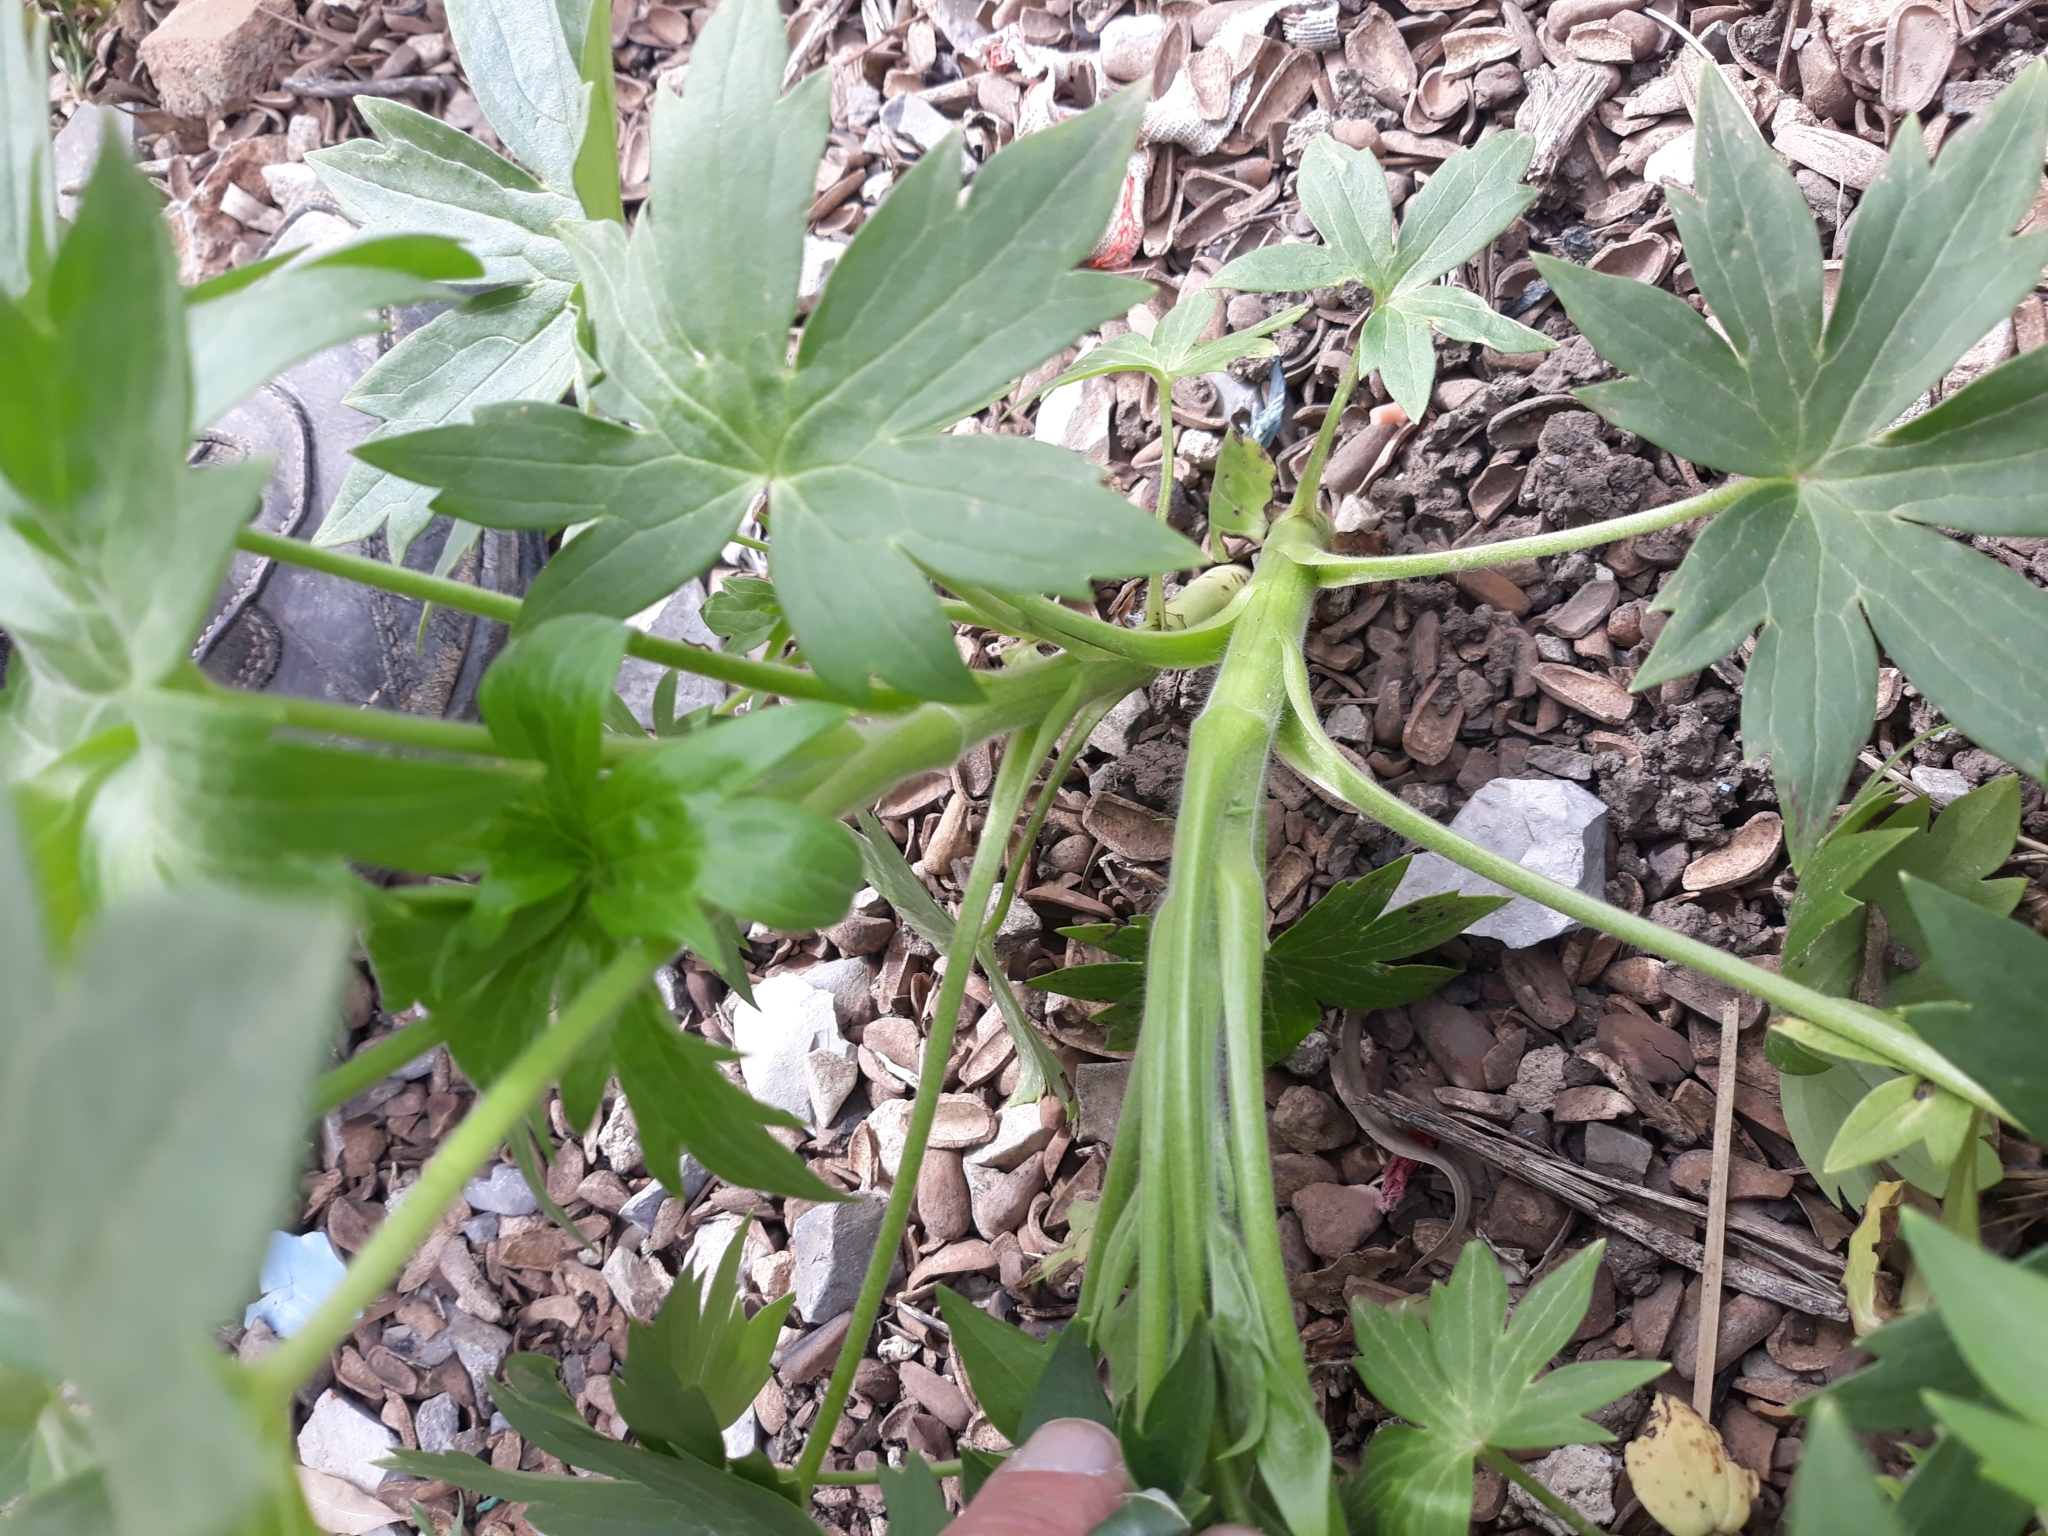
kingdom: Plantae
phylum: Tracheophyta
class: Magnoliopsida
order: Ranunculales
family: Ranunculaceae
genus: Staphisagria
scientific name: Staphisagria macrosperma
